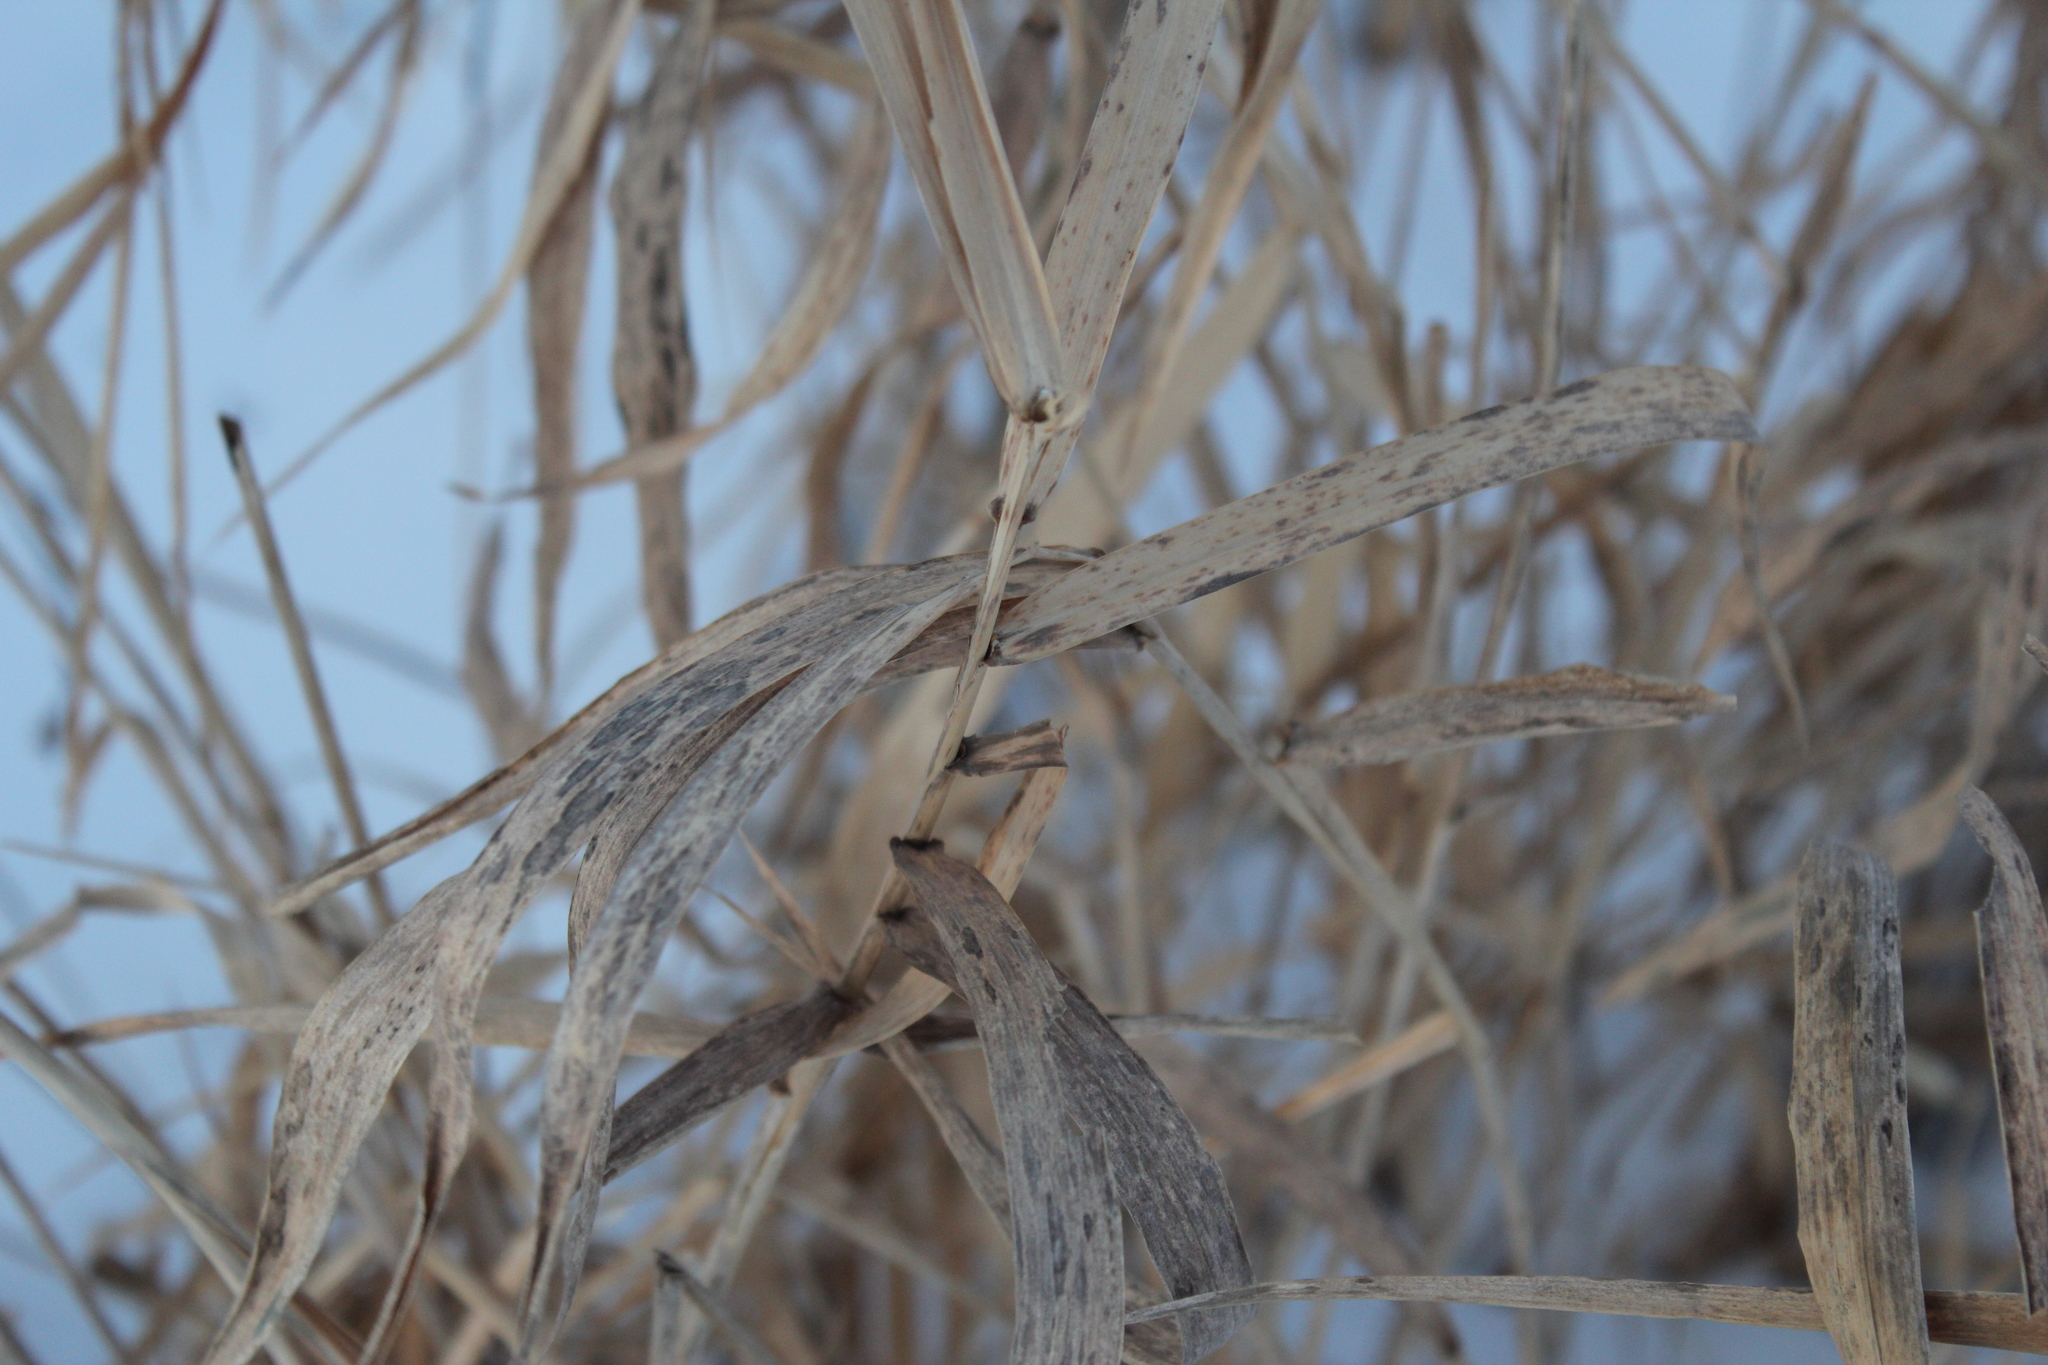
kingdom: Plantae
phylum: Tracheophyta
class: Liliopsida
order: Poales
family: Poaceae
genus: Phalaris
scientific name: Phalaris arundinacea
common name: Reed canary-grass
